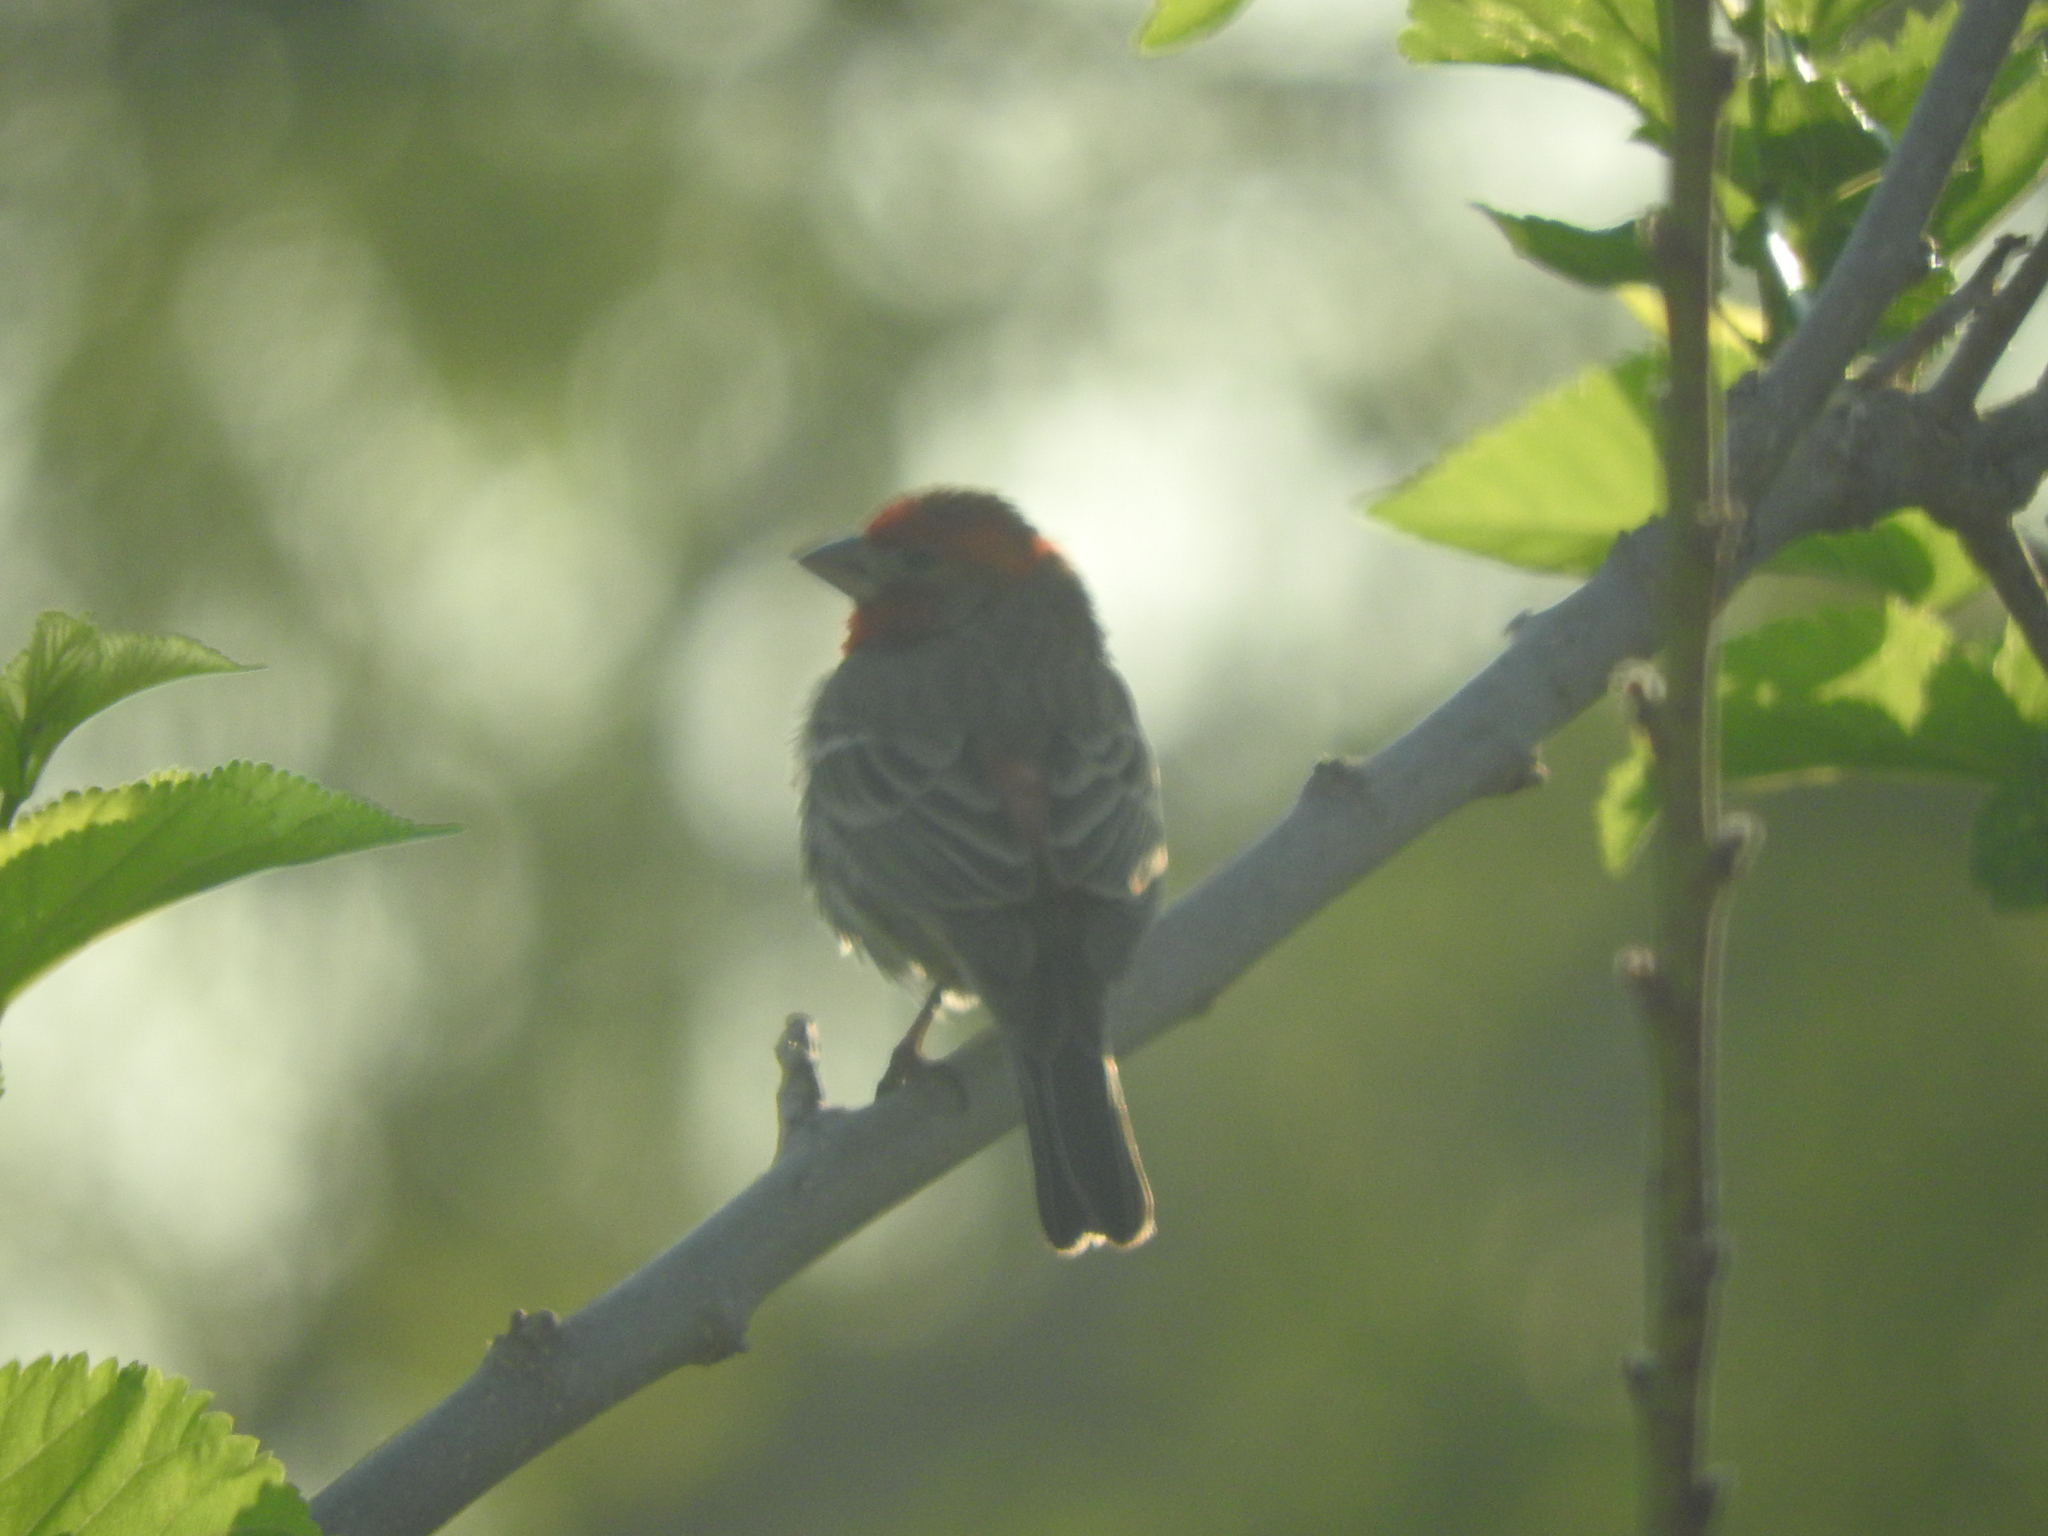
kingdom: Animalia
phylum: Chordata
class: Aves
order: Passeriformes
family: Fringillidae
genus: Haemorhous
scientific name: Haemorhous mexicanus
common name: House finch
